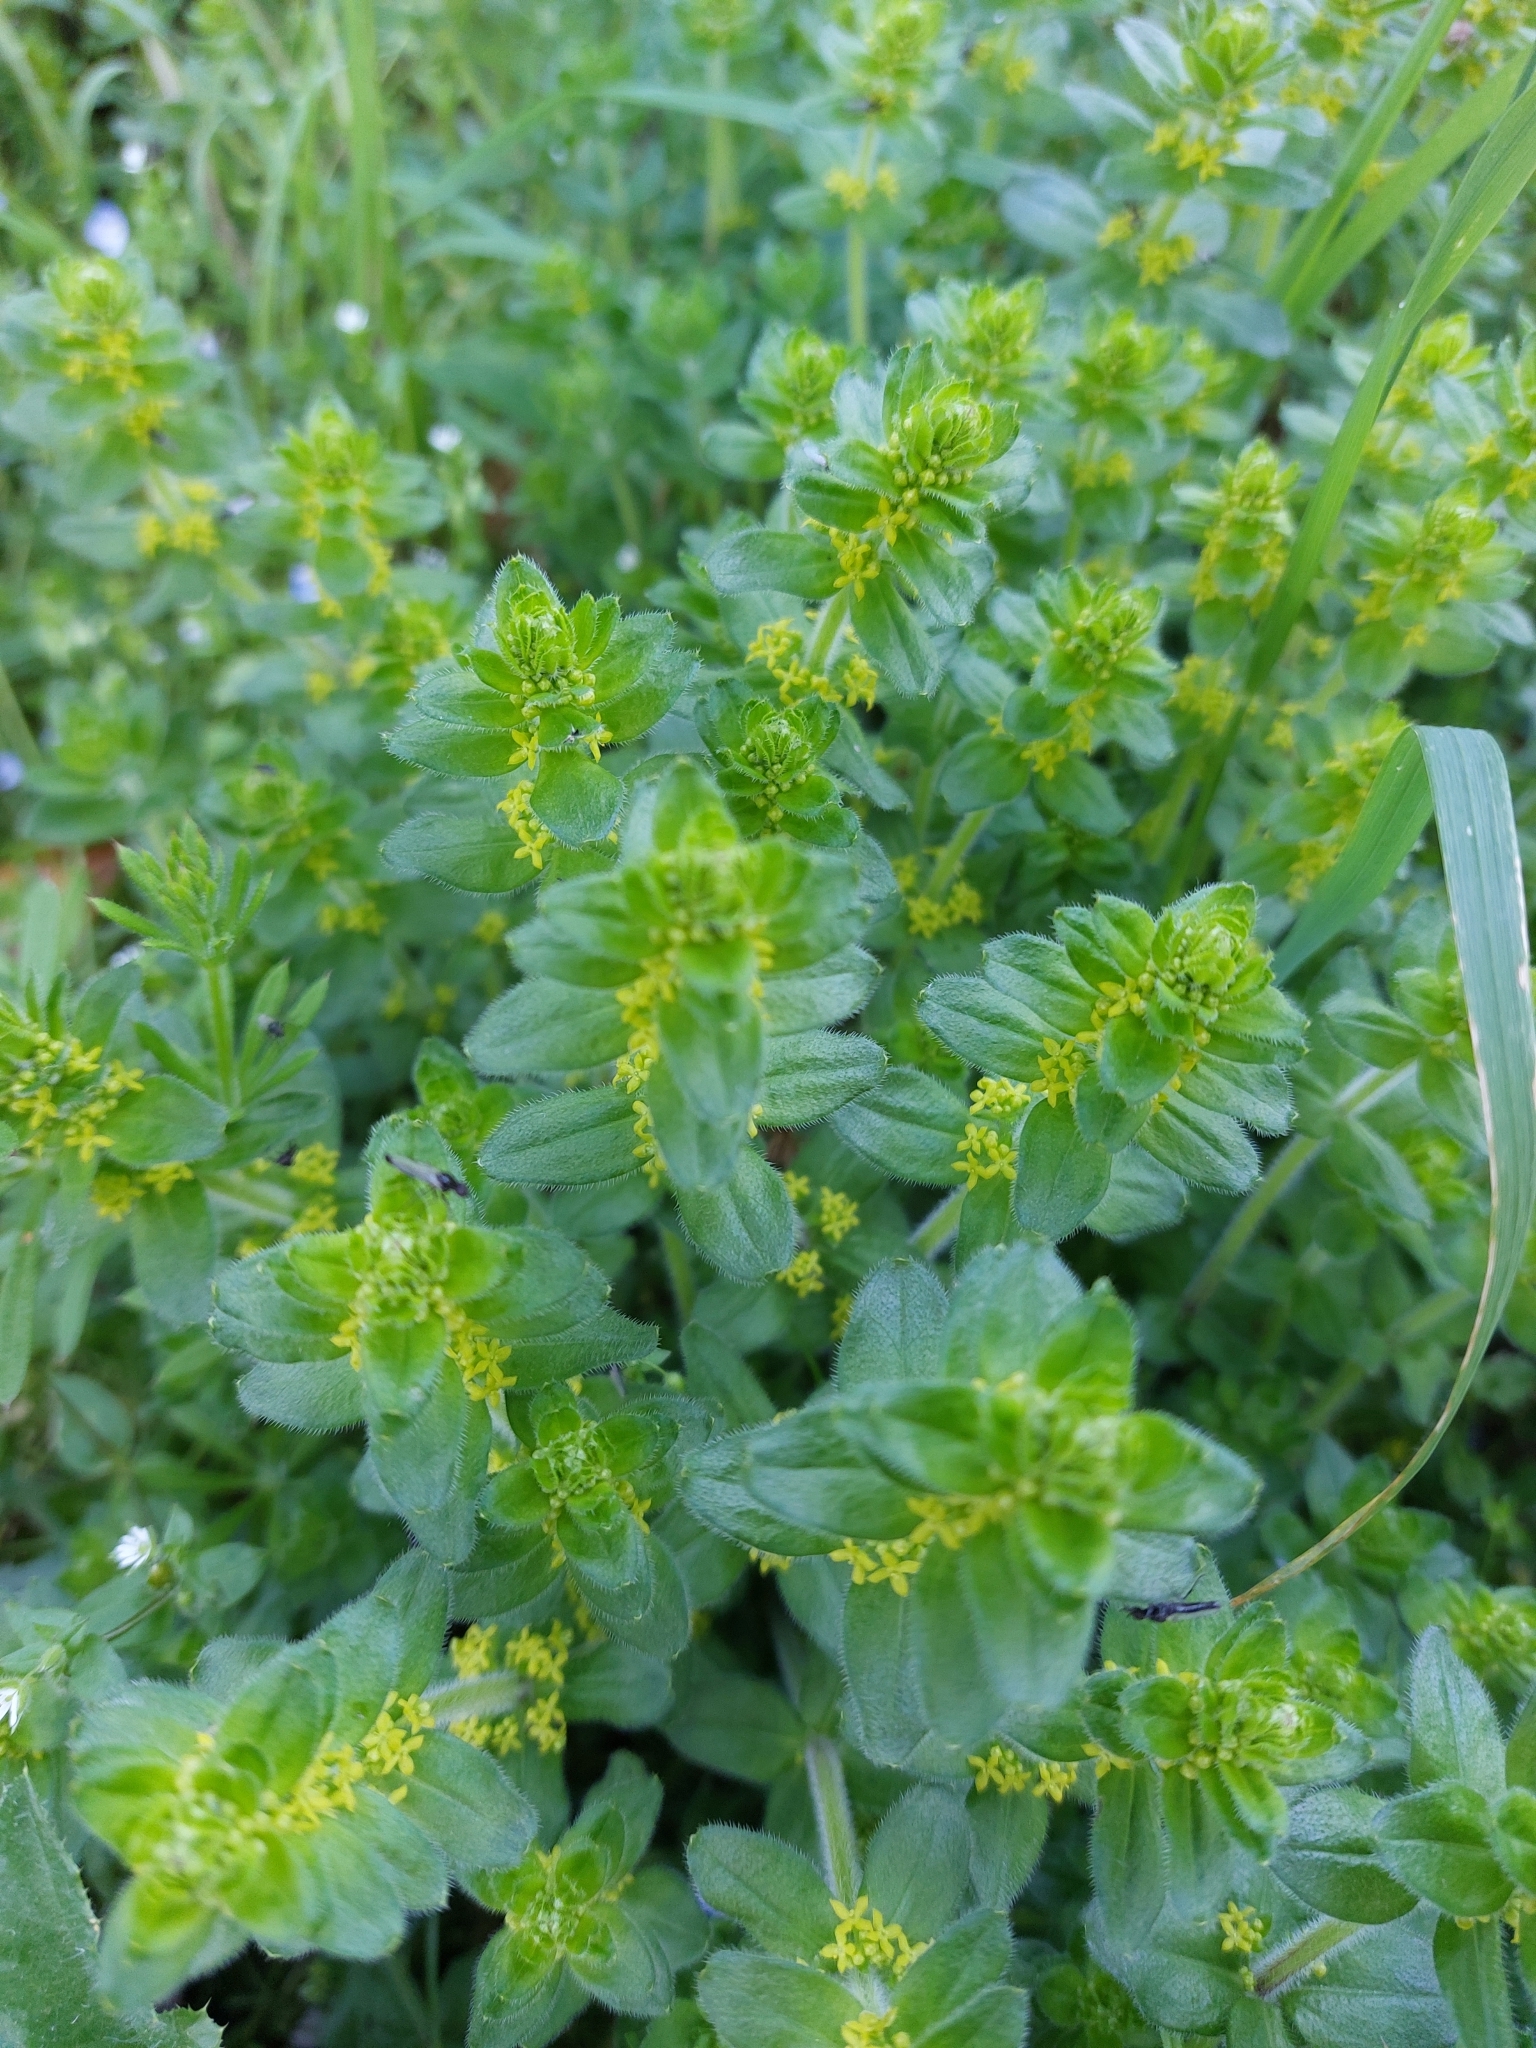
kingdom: Plantae
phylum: Tracheophyta
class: Magnoliopsida
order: Gentianales
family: Rubiaceae
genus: Cruciata
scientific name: Cruciata laevipes
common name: Crosswort
